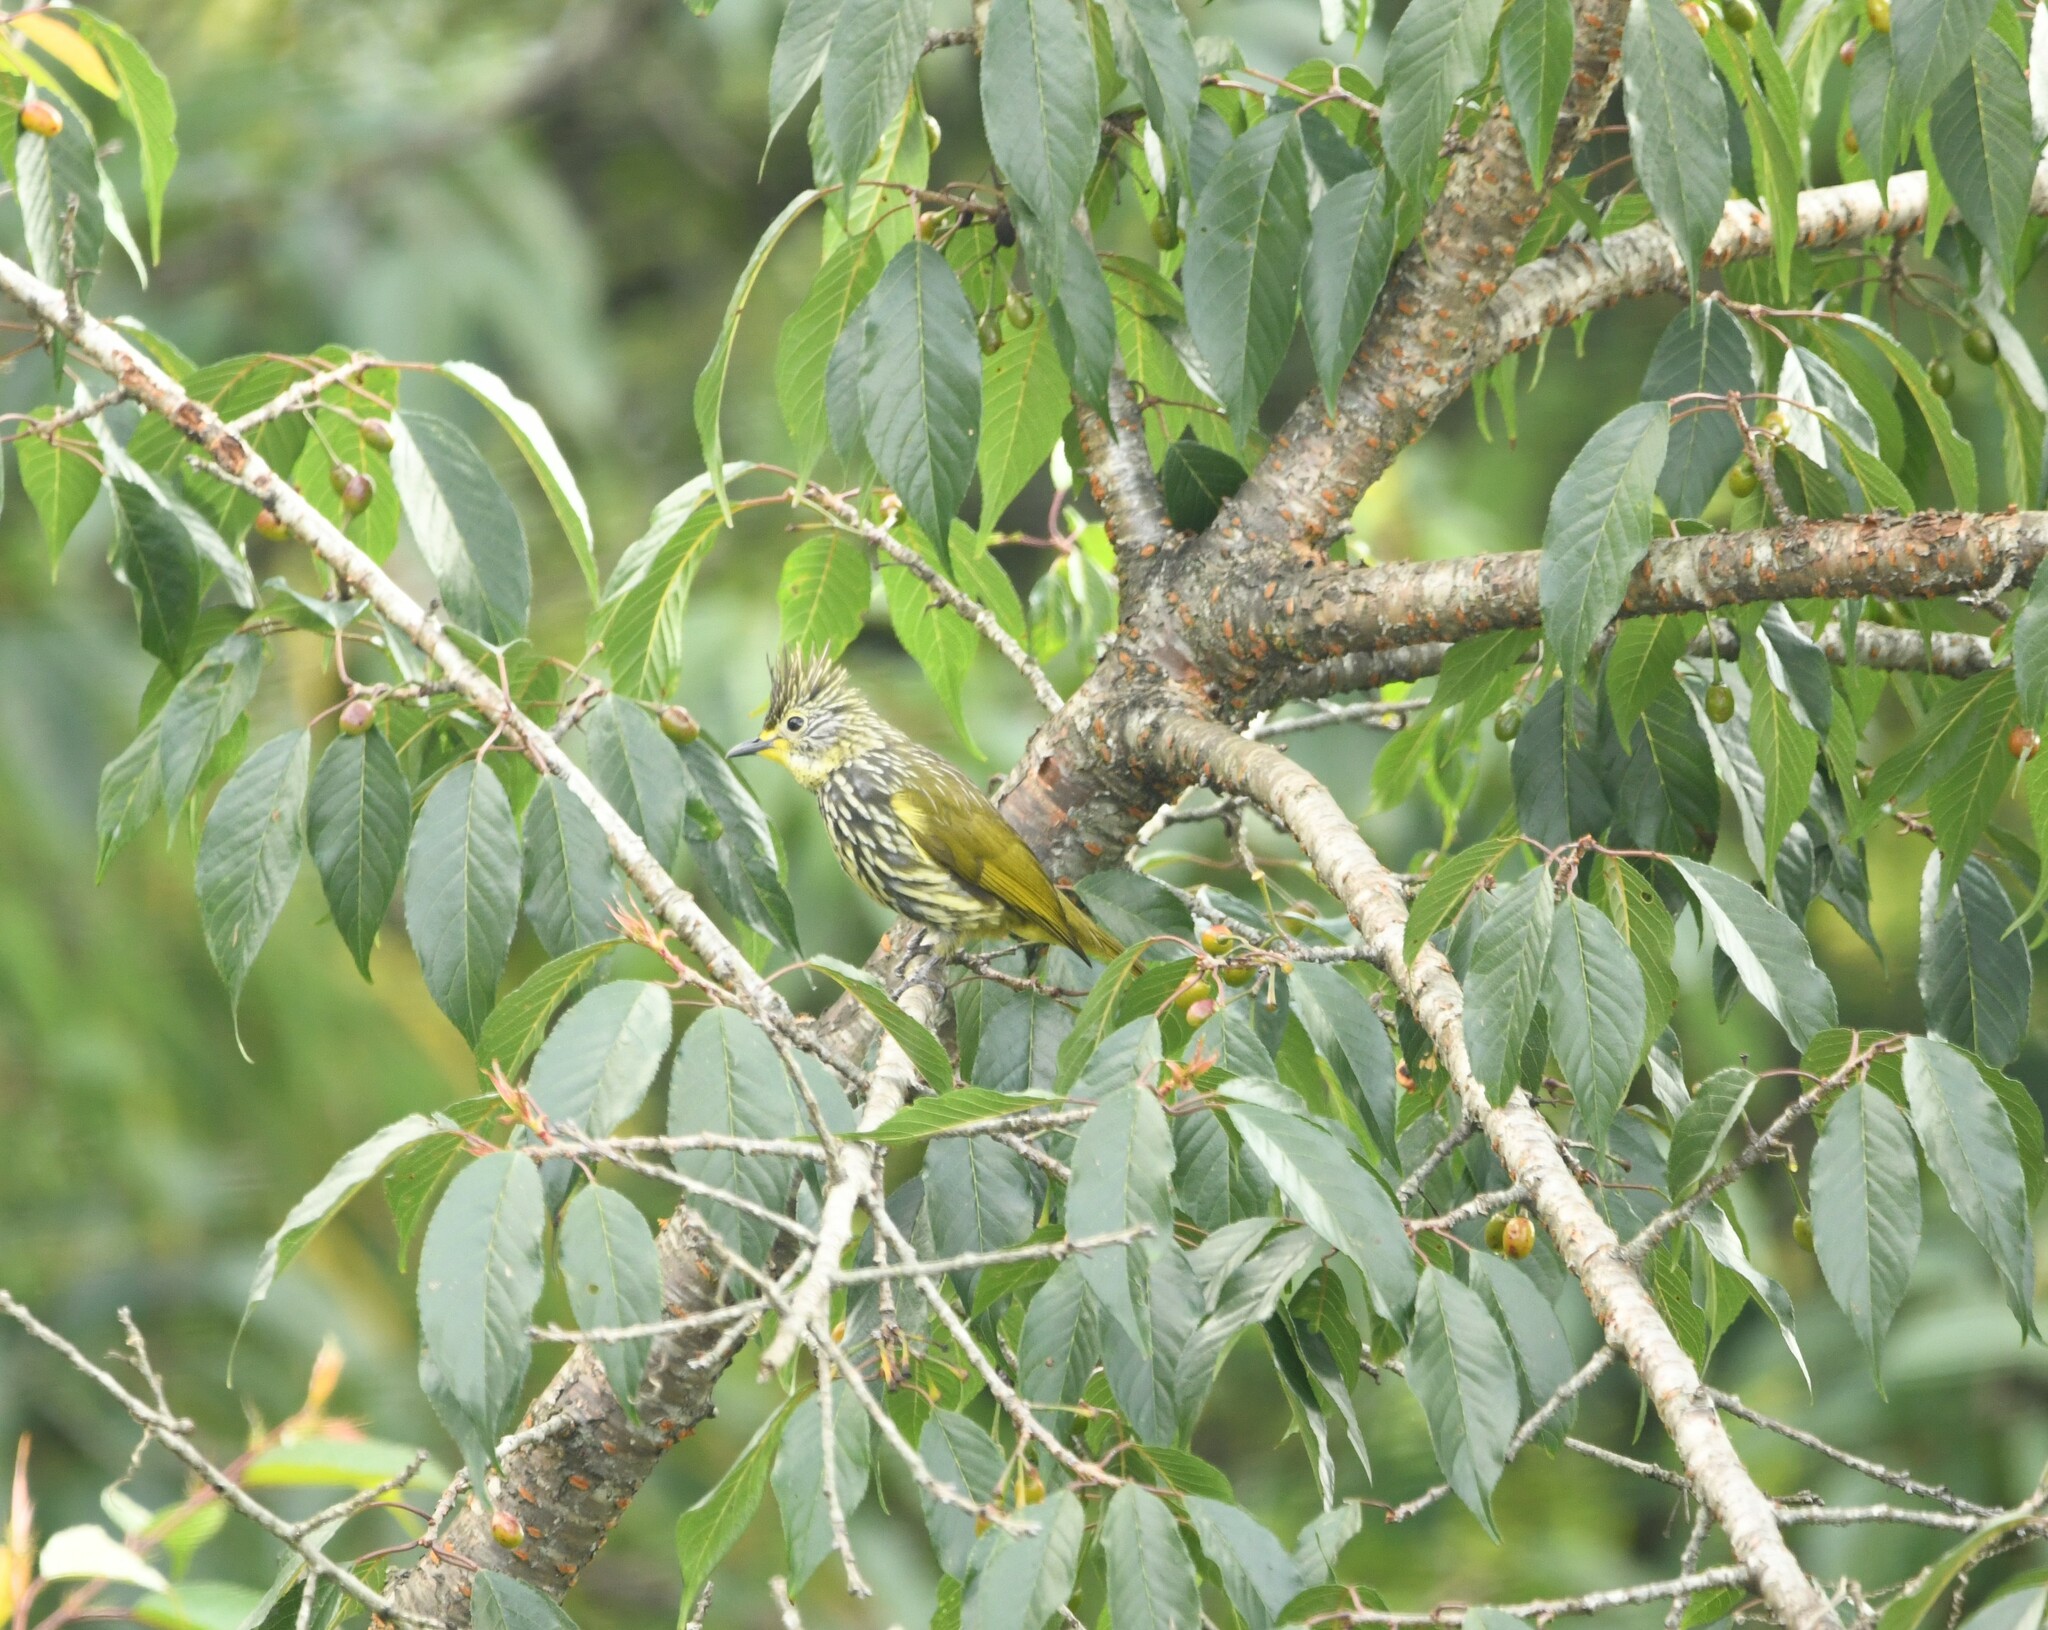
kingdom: Animalia
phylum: Chordata
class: Aves
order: Passeriformes
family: Pycnonotidae
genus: Pycnonotus
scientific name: Pycnonotus striatus
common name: Striated bulbul
